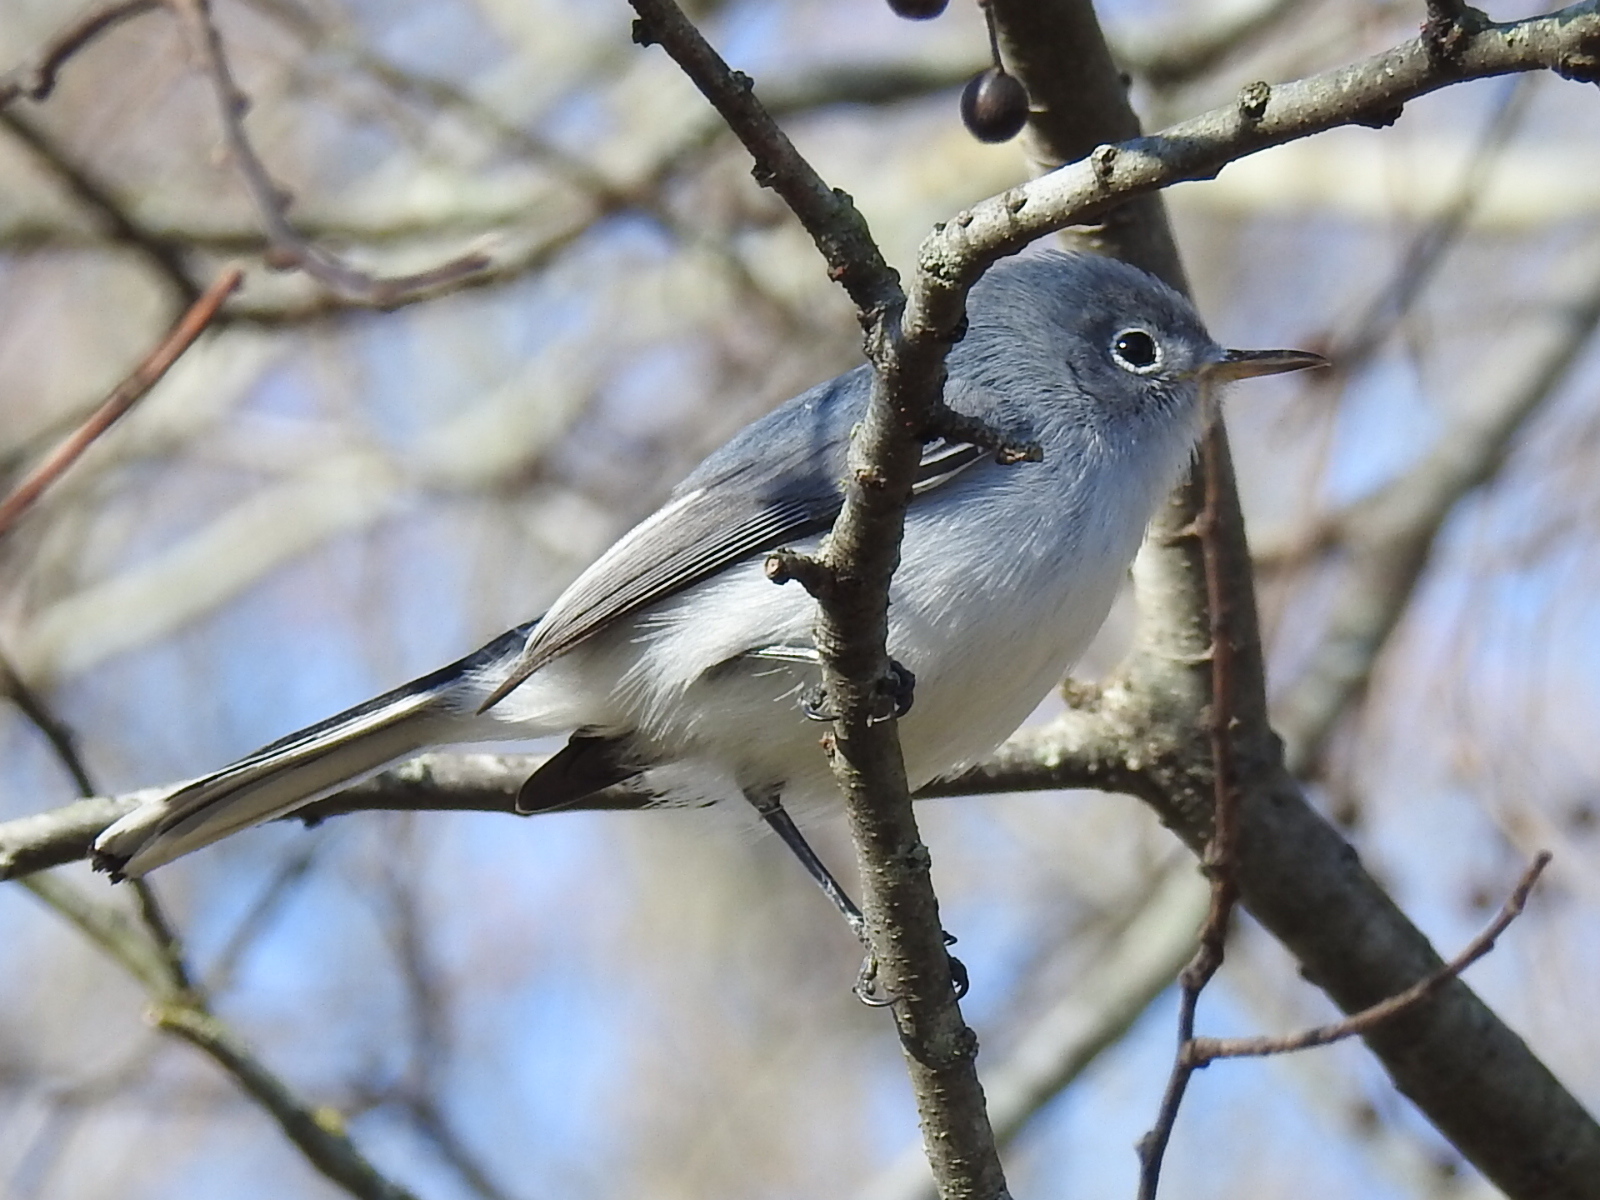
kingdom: Animalia
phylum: Chordata
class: Aves
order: Passeriformes
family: Polioptilidae
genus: Polioptila
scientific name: Polioptila caerulea
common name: Blue-gray gnatcatcher
